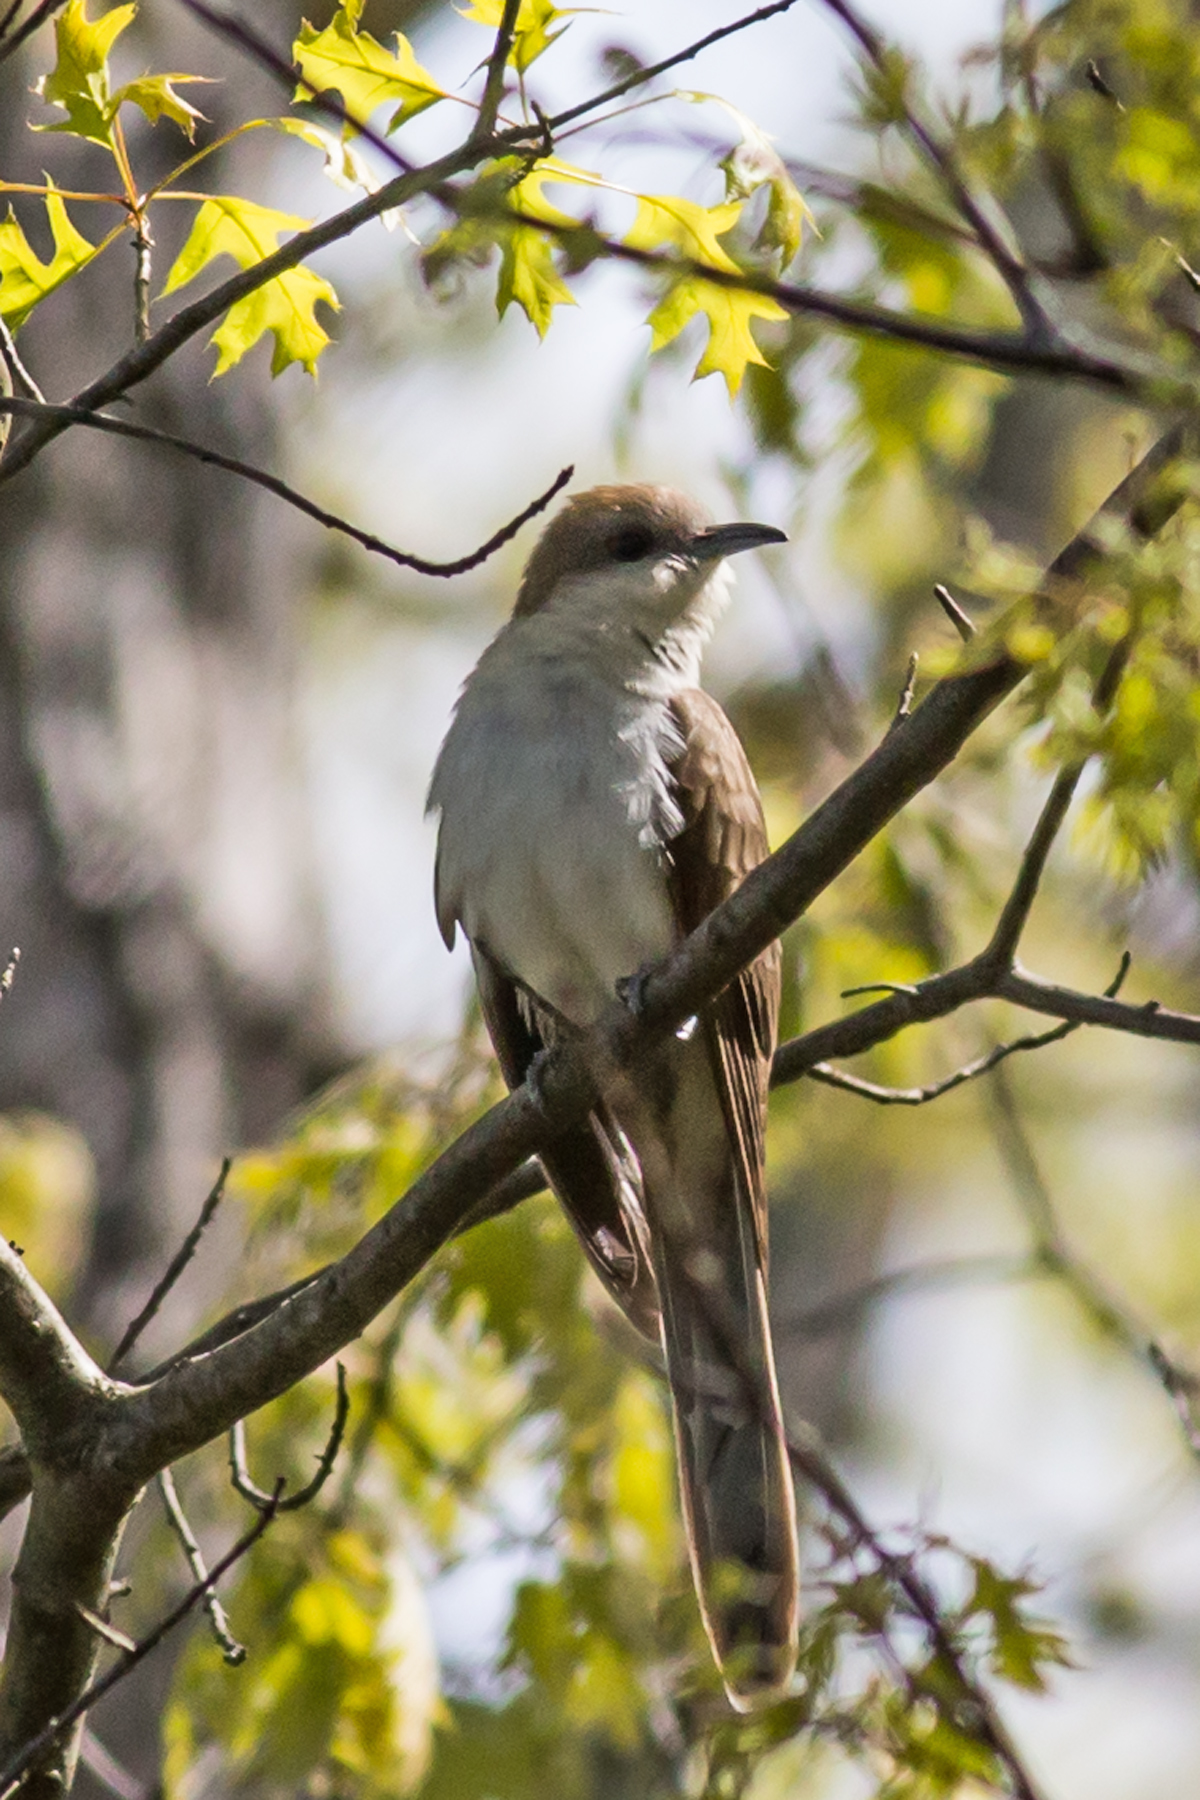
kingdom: Animalia
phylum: Chordata
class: Aves
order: Cuculiformes
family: Cuculidae
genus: Coccyzus
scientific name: Coccyzus erythropthalmus
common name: Black-billed cuckoo
